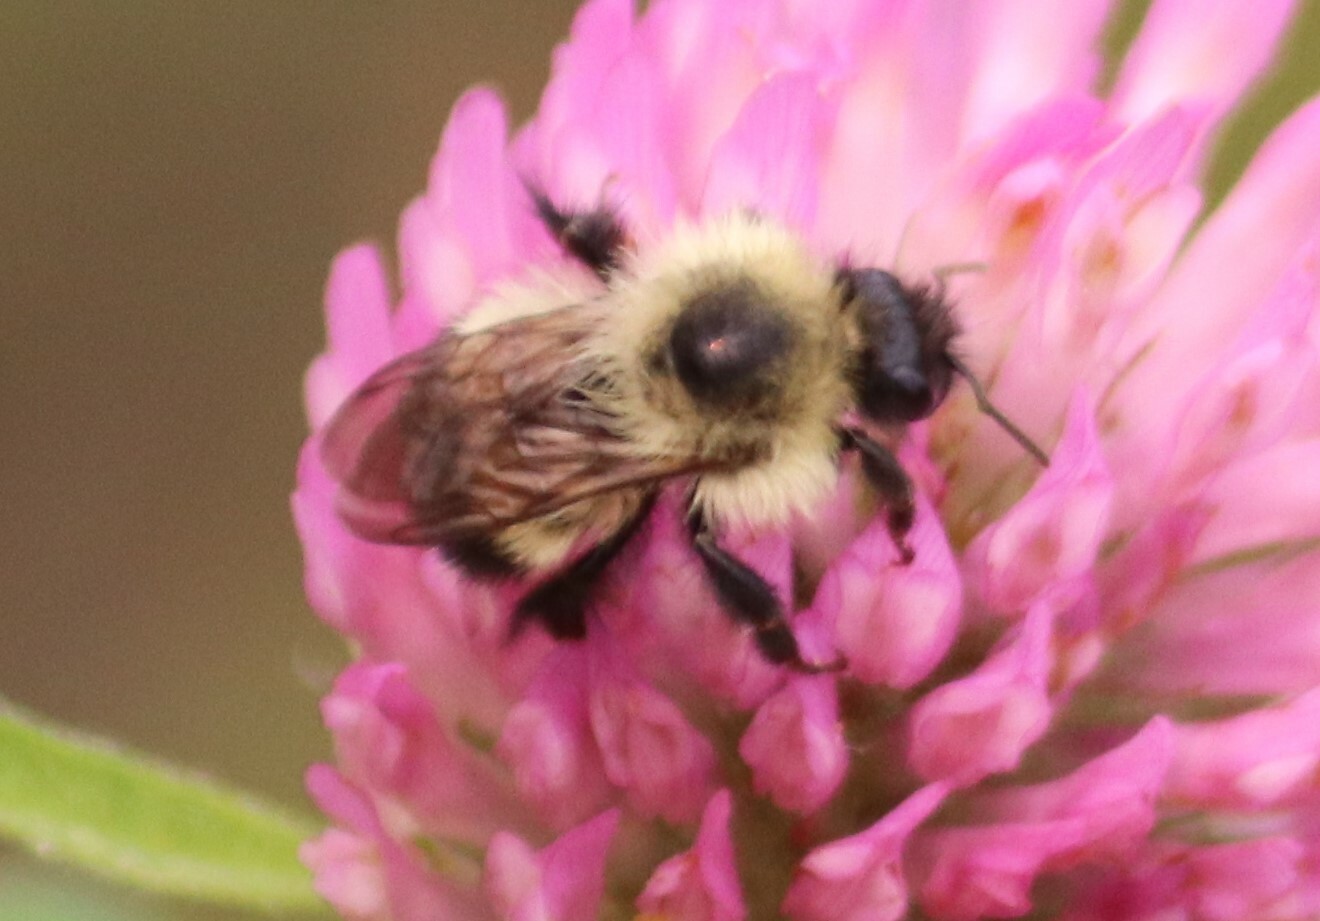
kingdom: Animalia
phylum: Arthropoda
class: Insecta
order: Hymenoptera
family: Apidae
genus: Bombus
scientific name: Bombus vagans
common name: Half-black bumble bee
